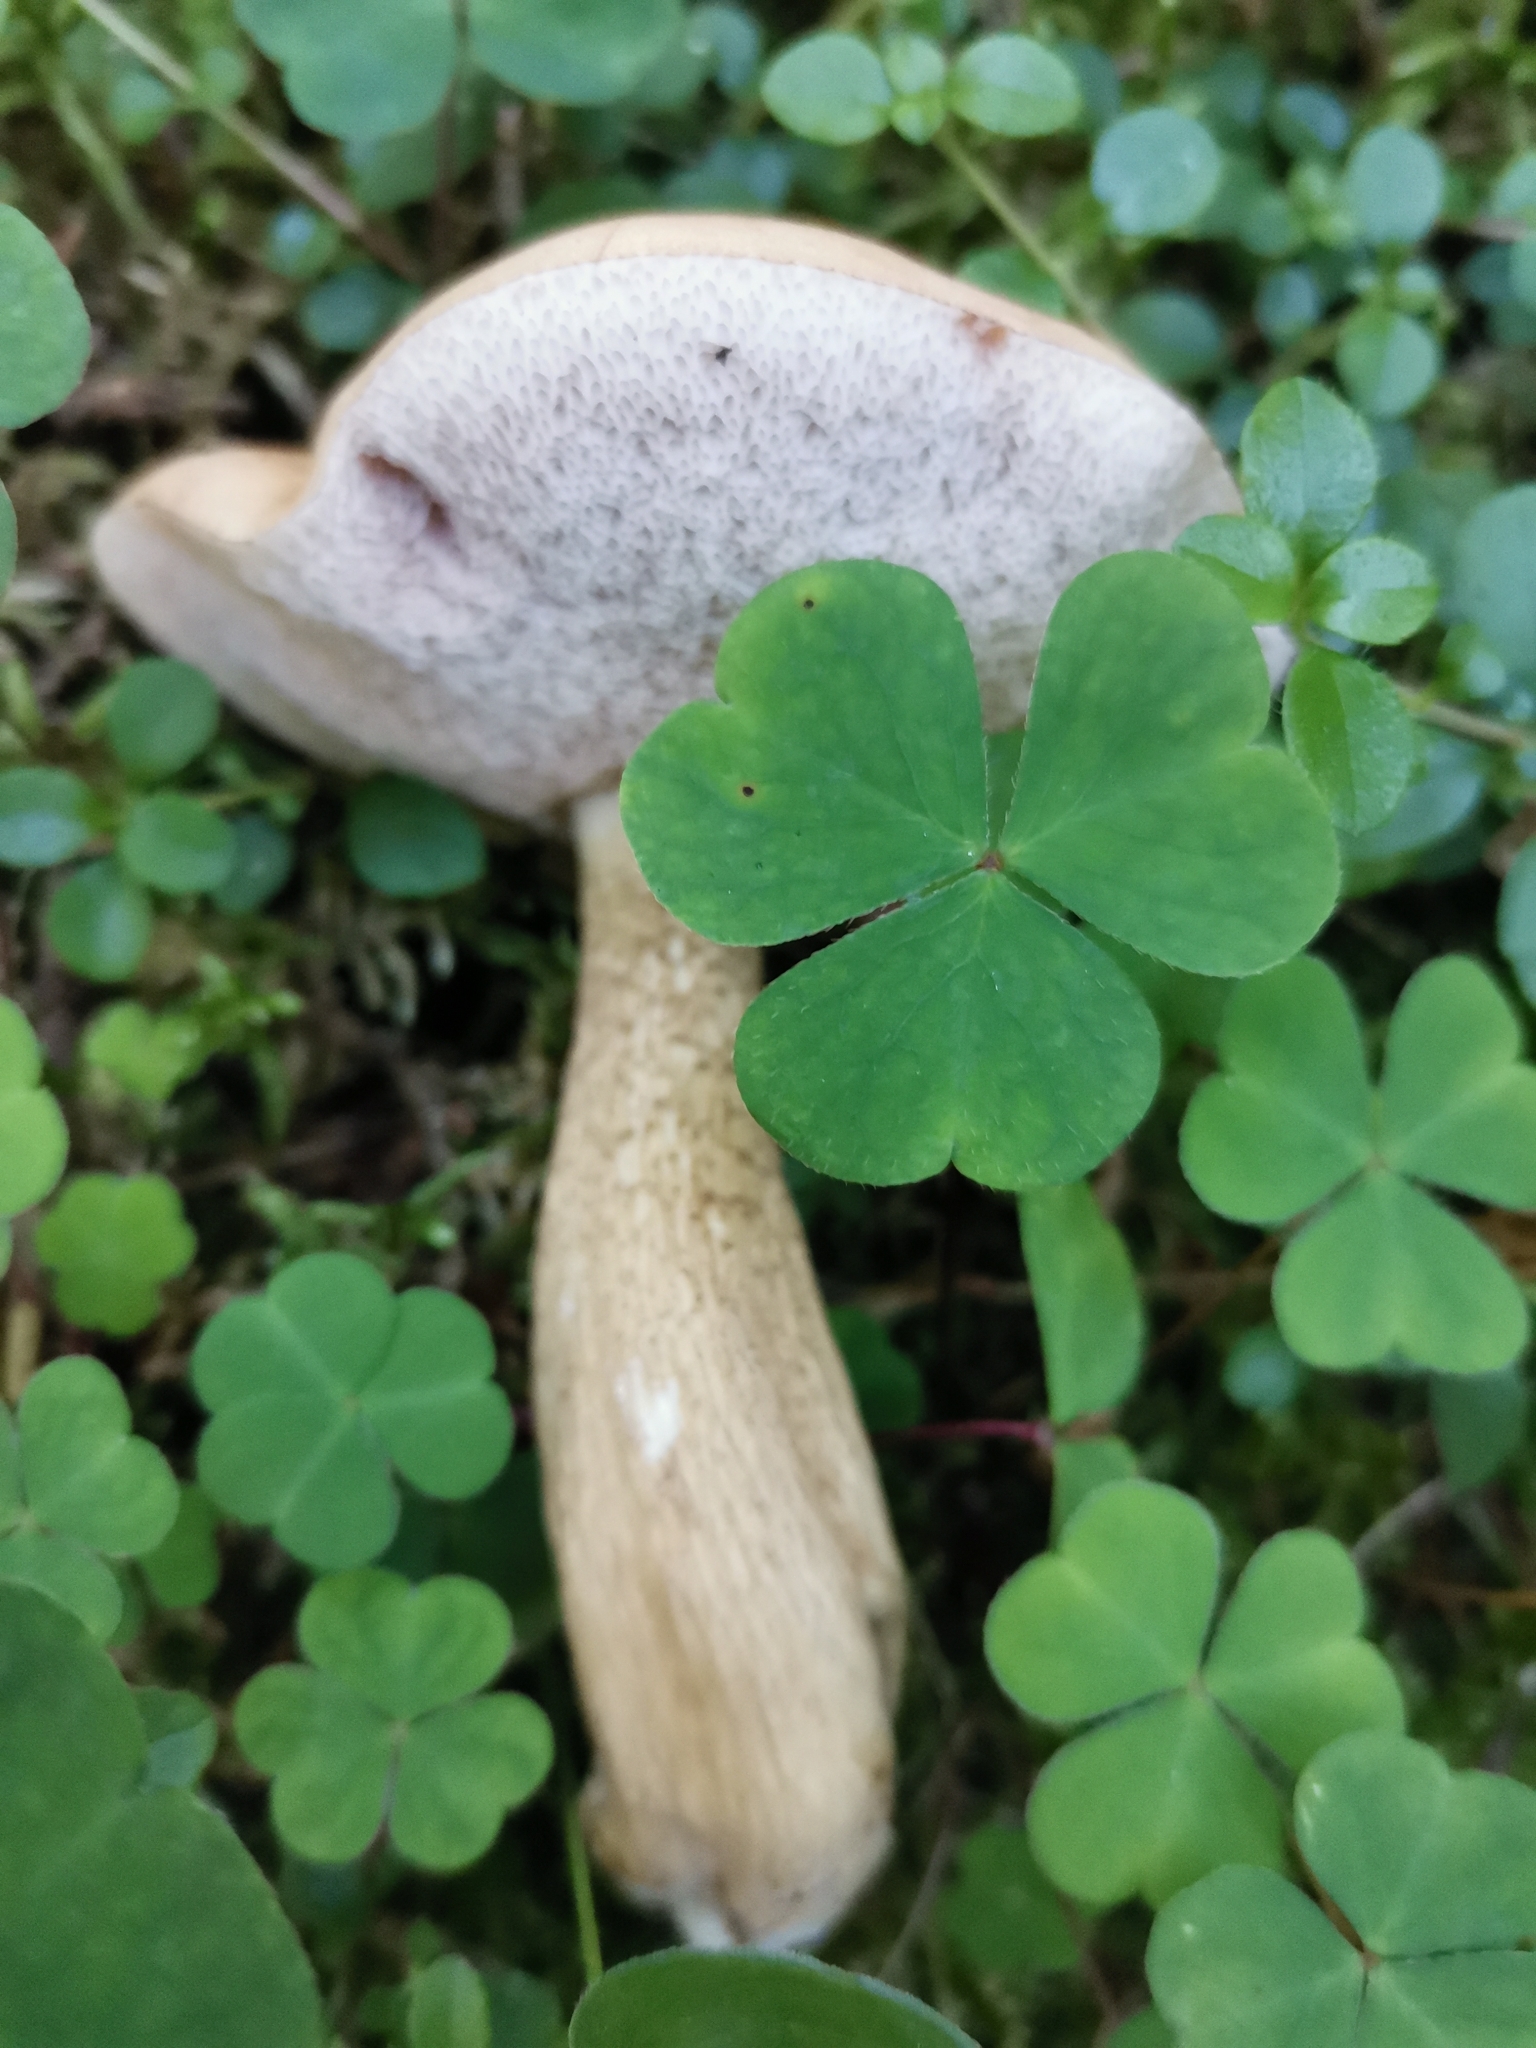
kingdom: Fungi
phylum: Basidiomycota
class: Agaricomycetes
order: Boletales
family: Boletaceae
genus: Tylopilus
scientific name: Tylopilus felleus
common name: Bitter bolete
